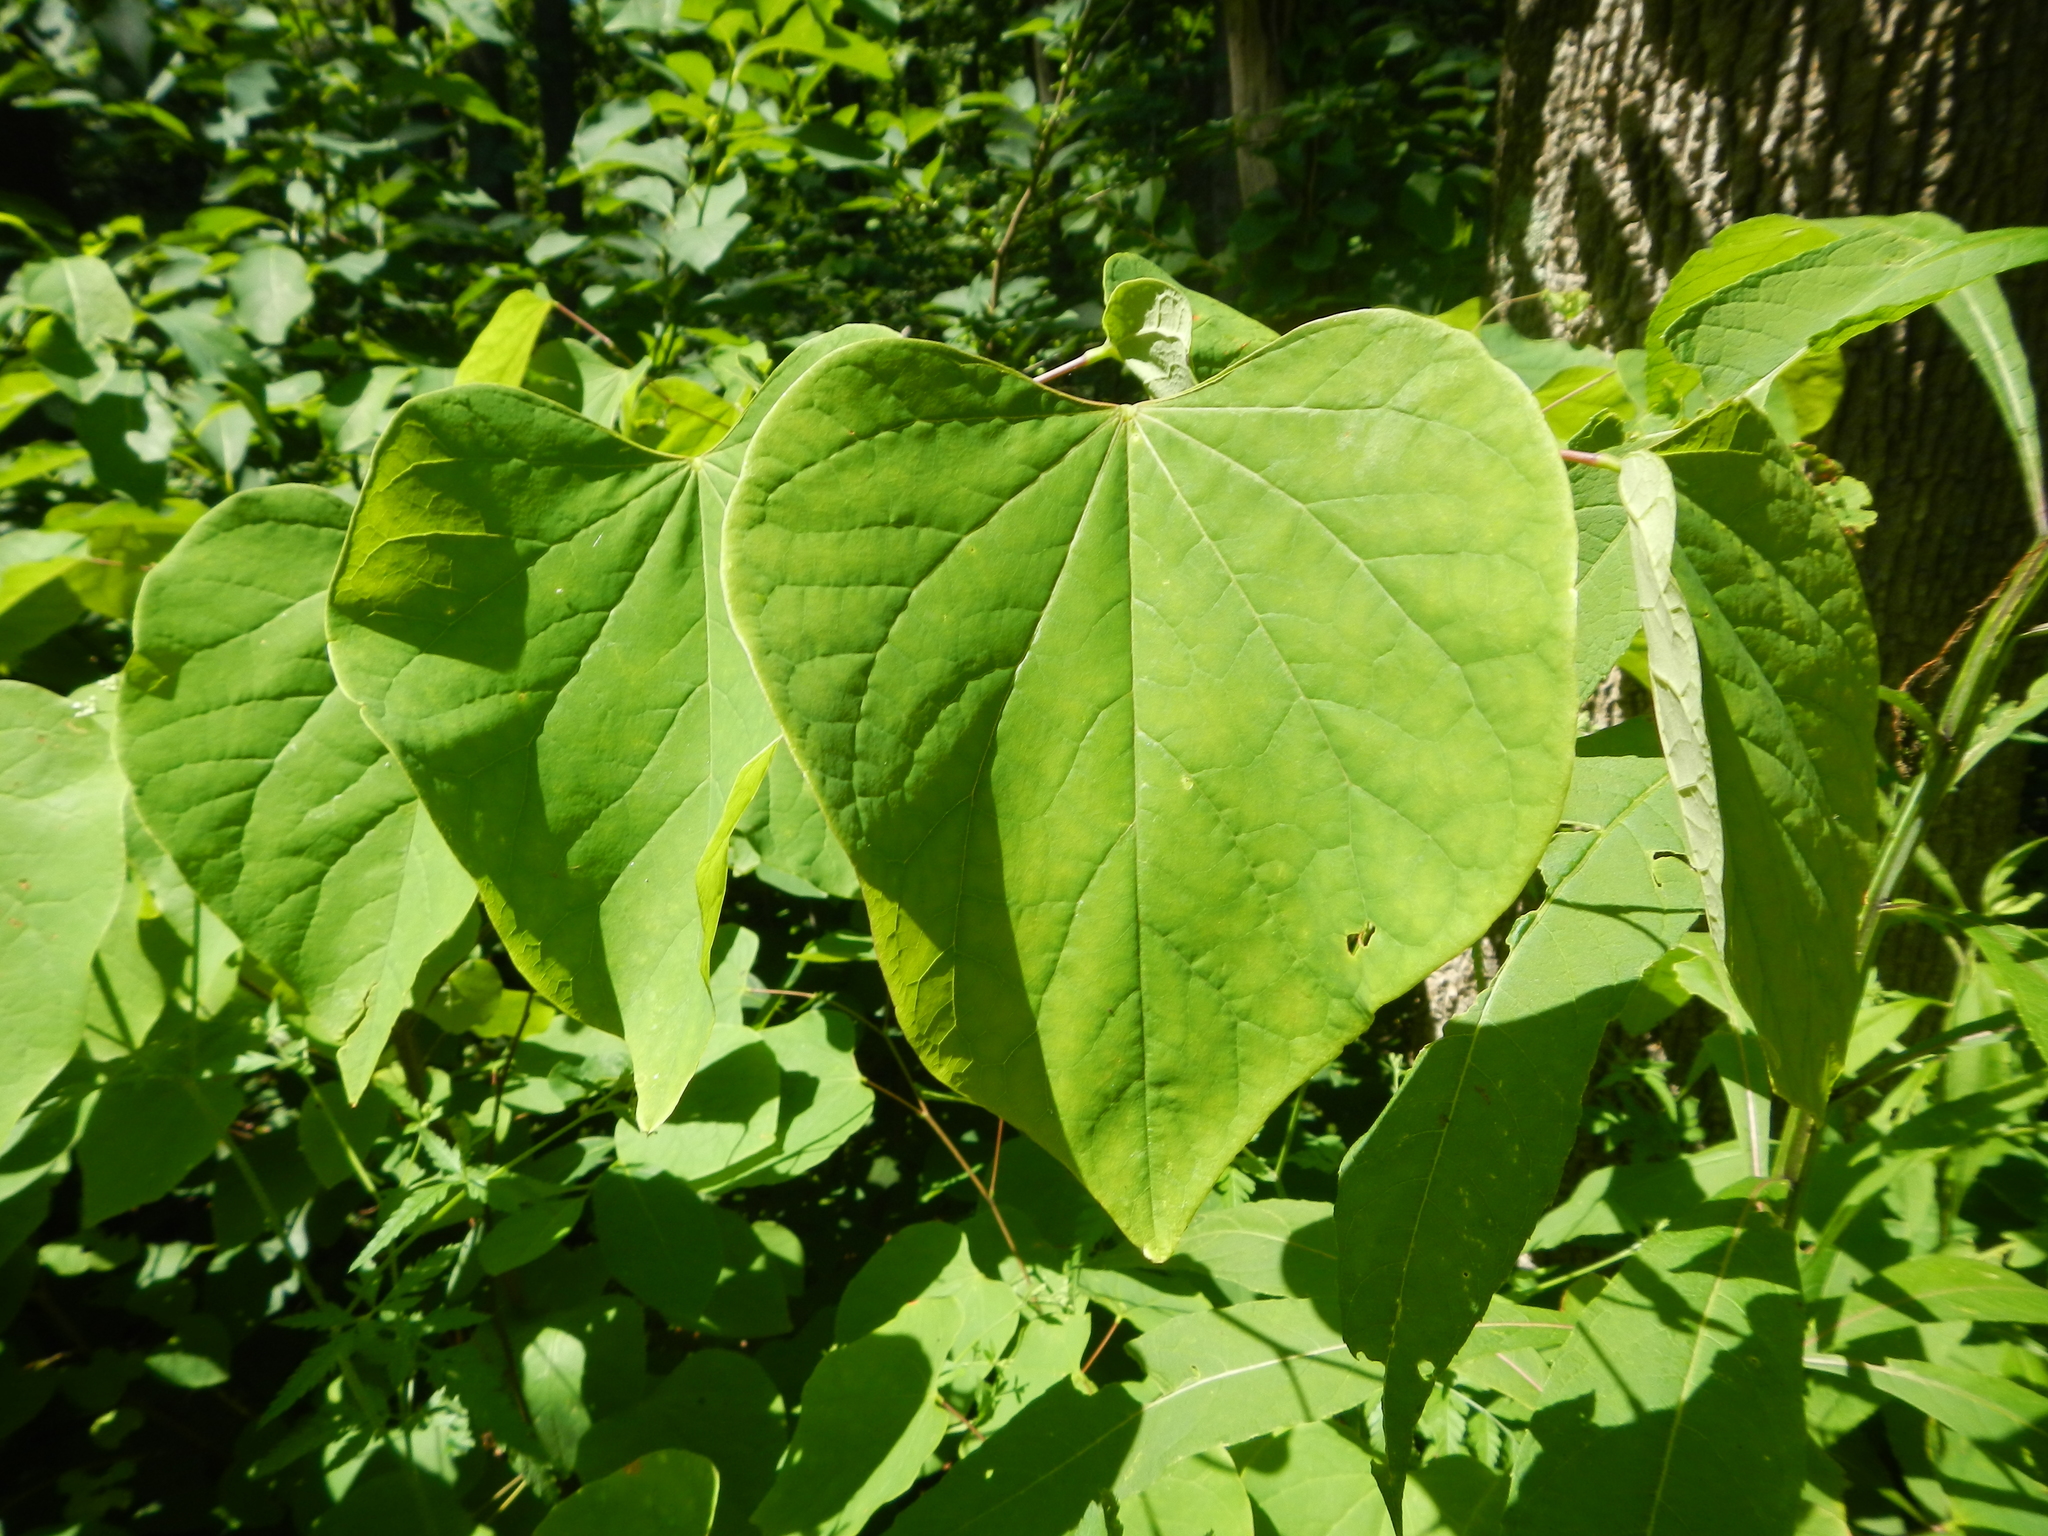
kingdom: Plantae
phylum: Tracheophyta
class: Magnoliopsida
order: Fabales
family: Fabaceae
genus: Cercis
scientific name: Cercis canadensis
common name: Eastern redbud
